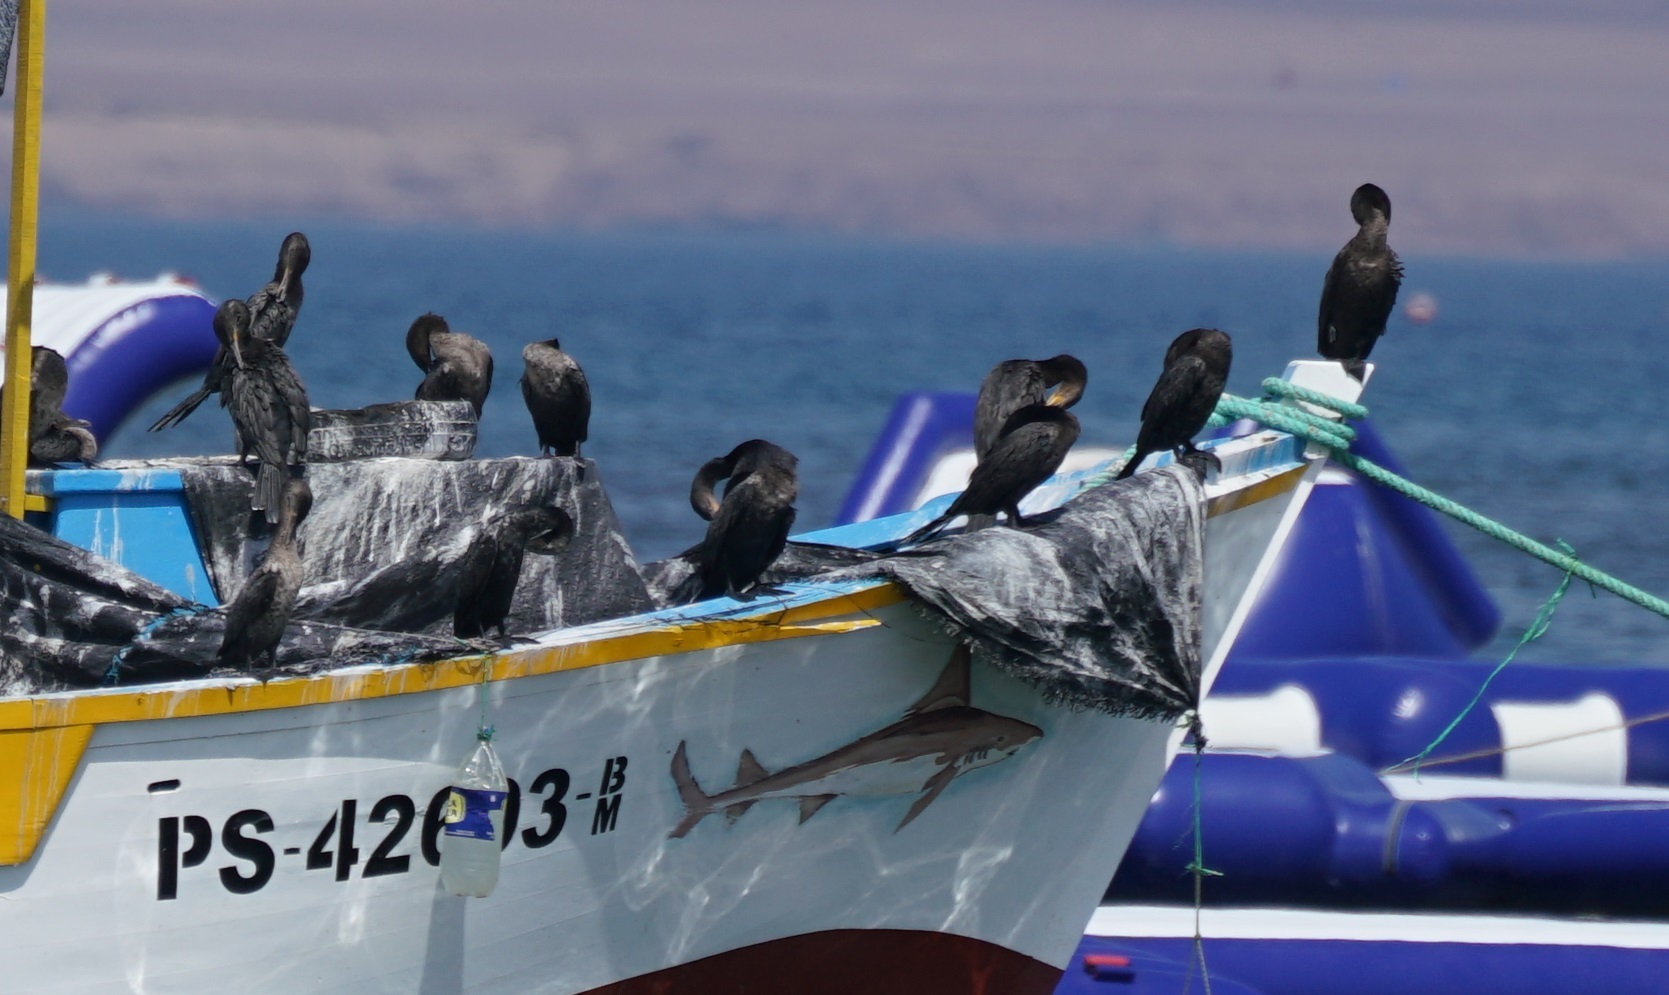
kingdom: Animalia
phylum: Chordata
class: Aves
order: Suliformes
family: Phalacrocoracidae
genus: Phalacrocorax
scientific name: Phalacrocorax brasilianus
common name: Neotropic cormorant
